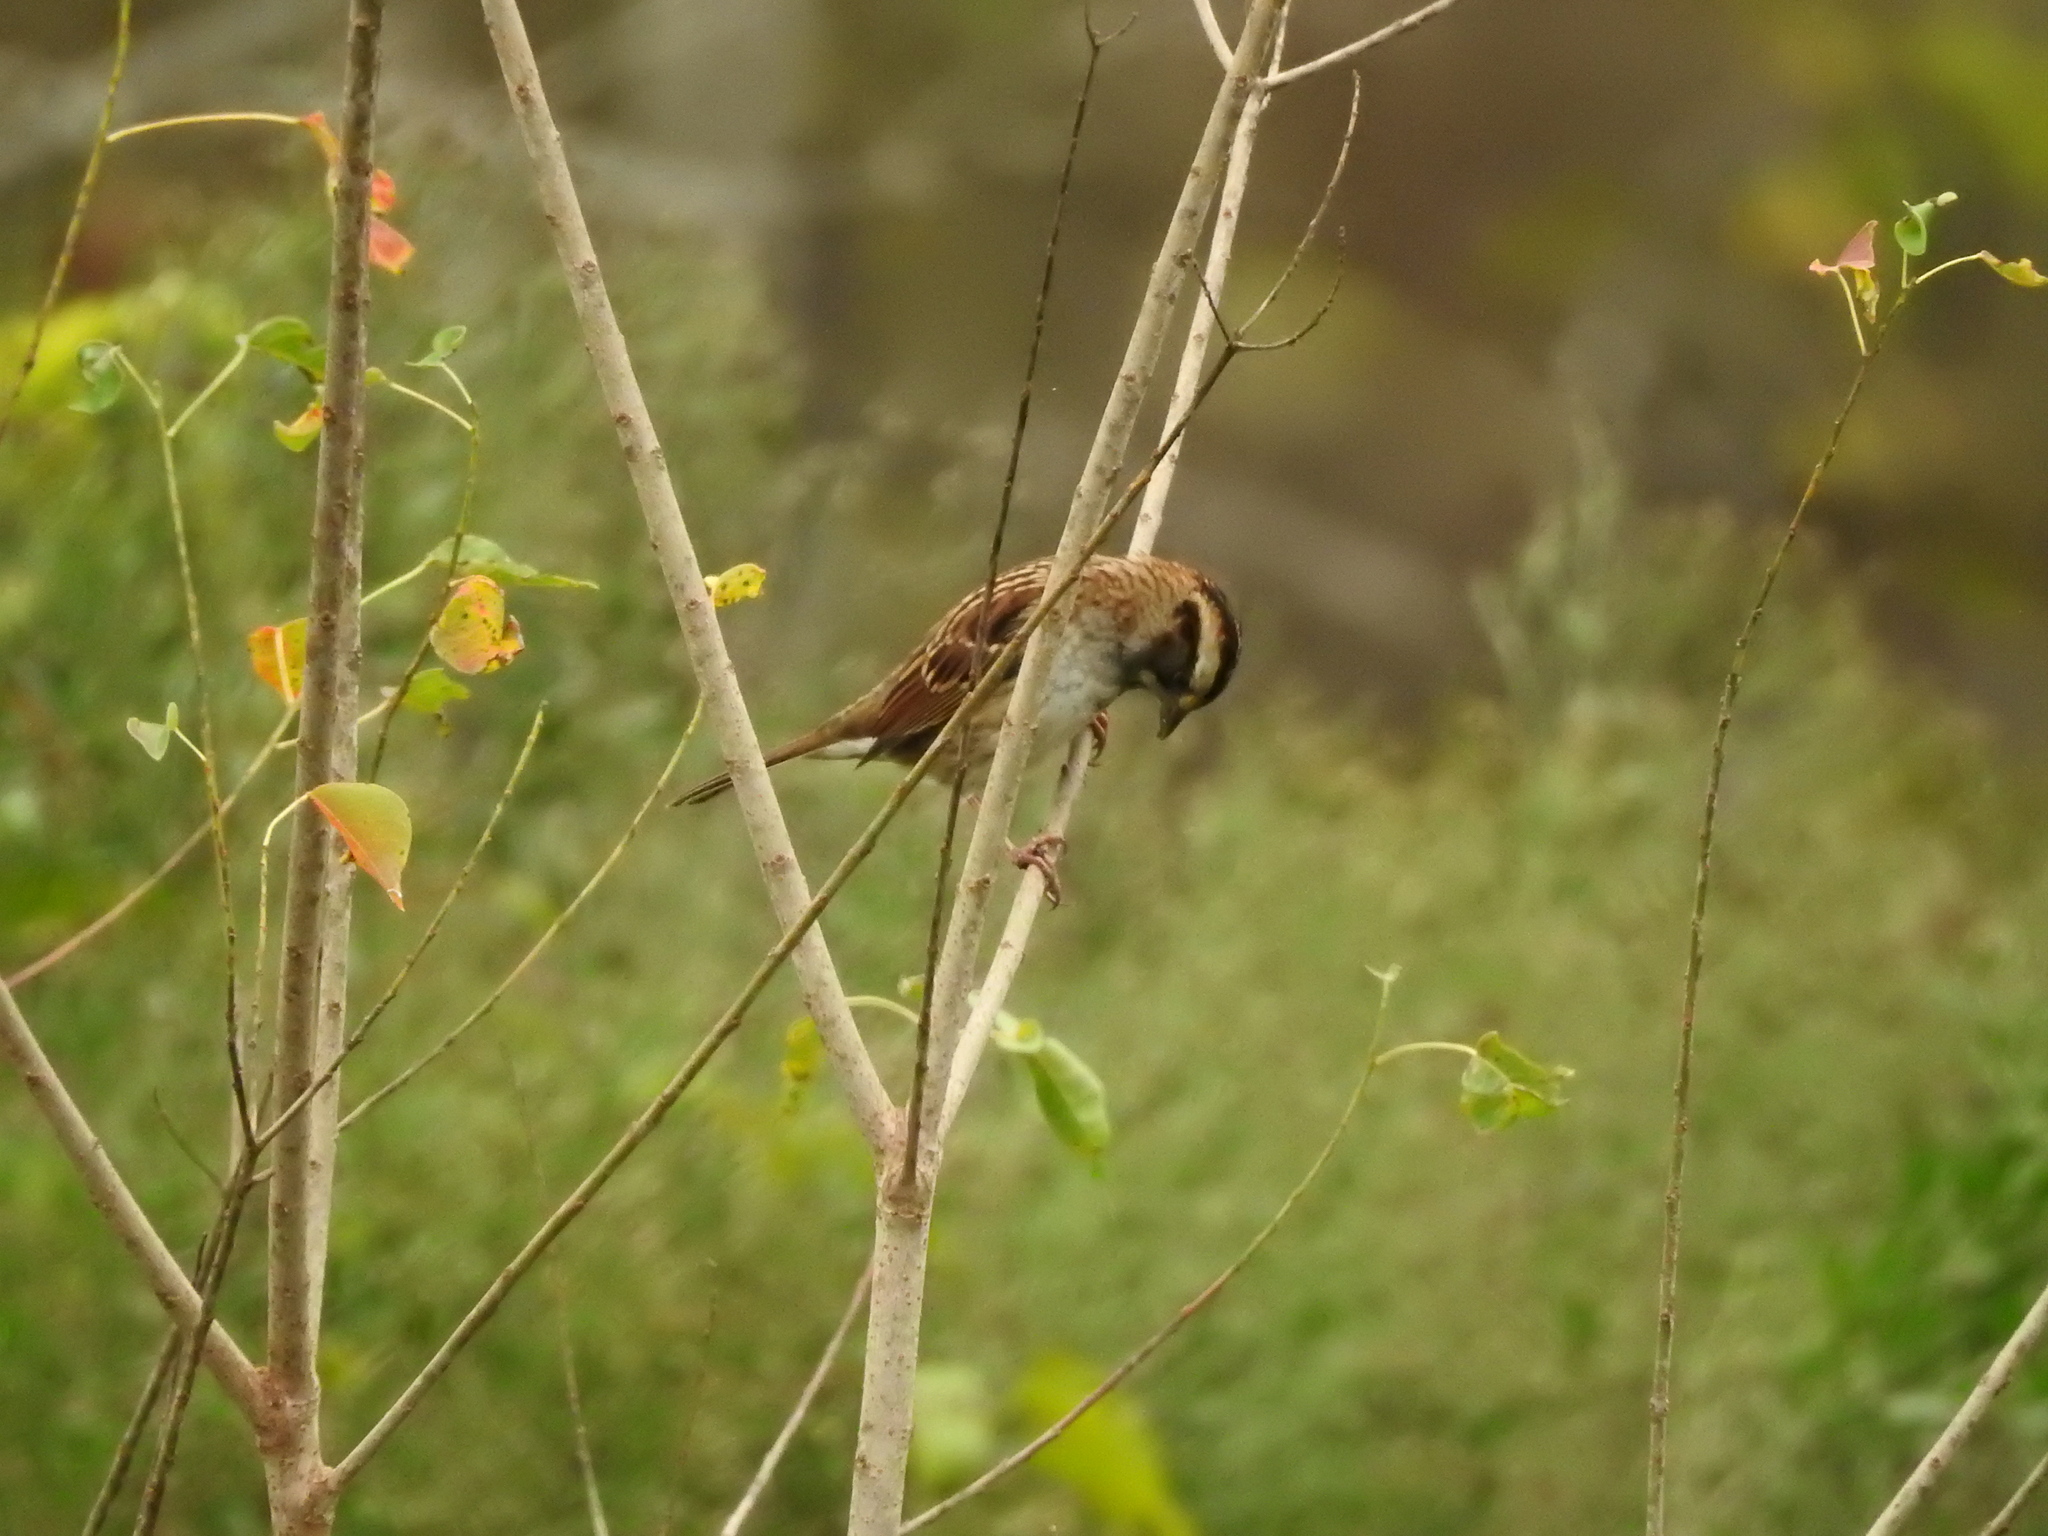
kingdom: Animalia
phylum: Chordata
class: Aves
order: Passeriformes
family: Passerellidae
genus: Zonotrichia
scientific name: Zonotrichia albicollis
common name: White-throated sparrow
